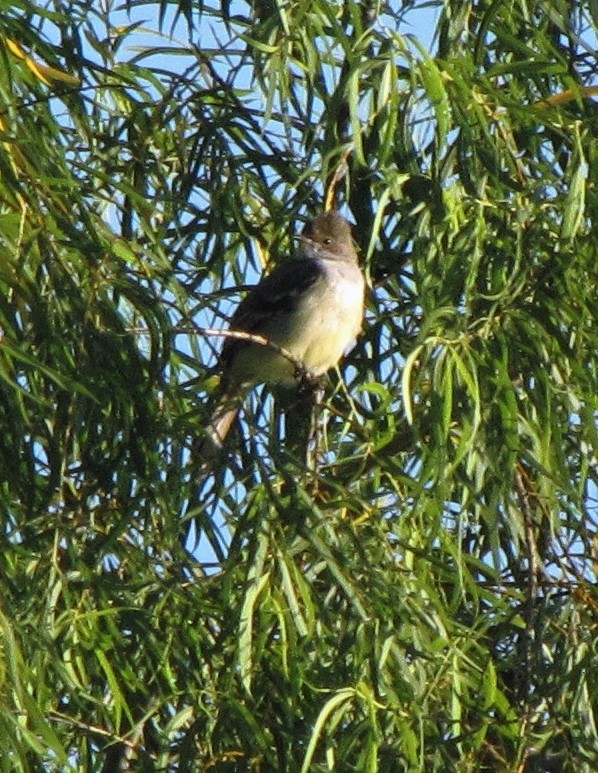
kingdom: Animalia
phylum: Chordata
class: Aves
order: Passeriformes
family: Tyrannidae
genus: Elaenia
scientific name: Elaenia spectabilis
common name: Large elaenia
